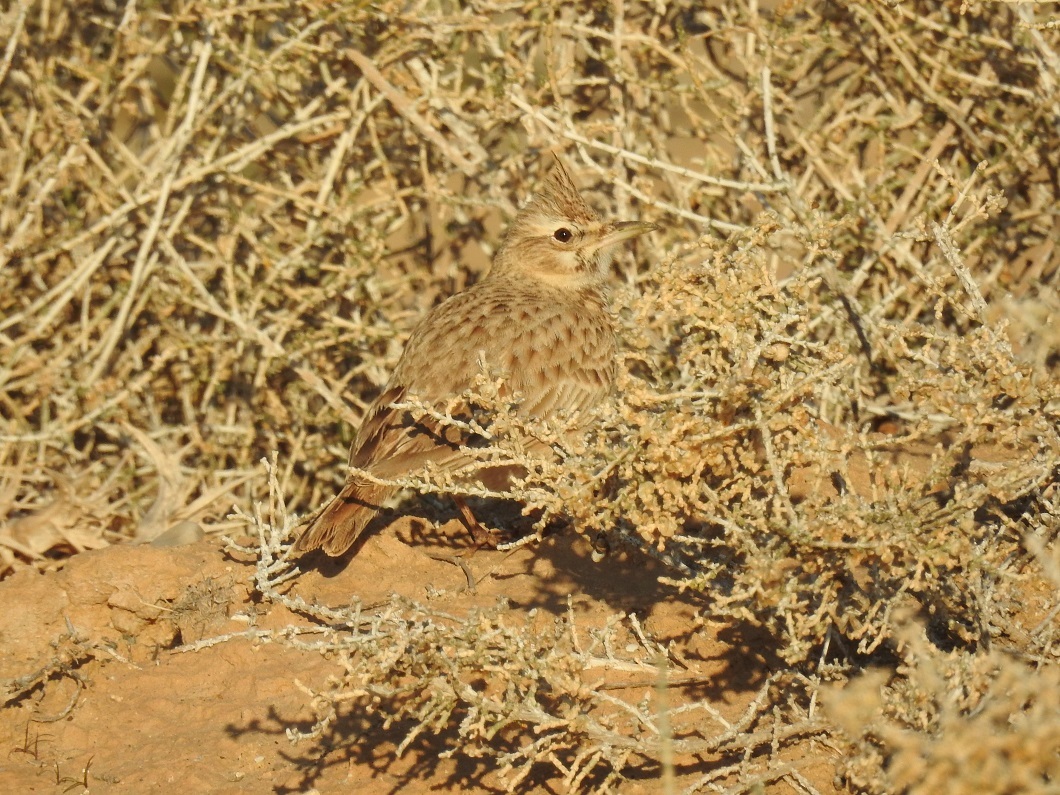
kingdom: Animalia
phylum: Chordata
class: Aves
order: Passeriformes
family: Alaudidae
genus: Galerida
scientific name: Galerida cristata
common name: Crested lark
